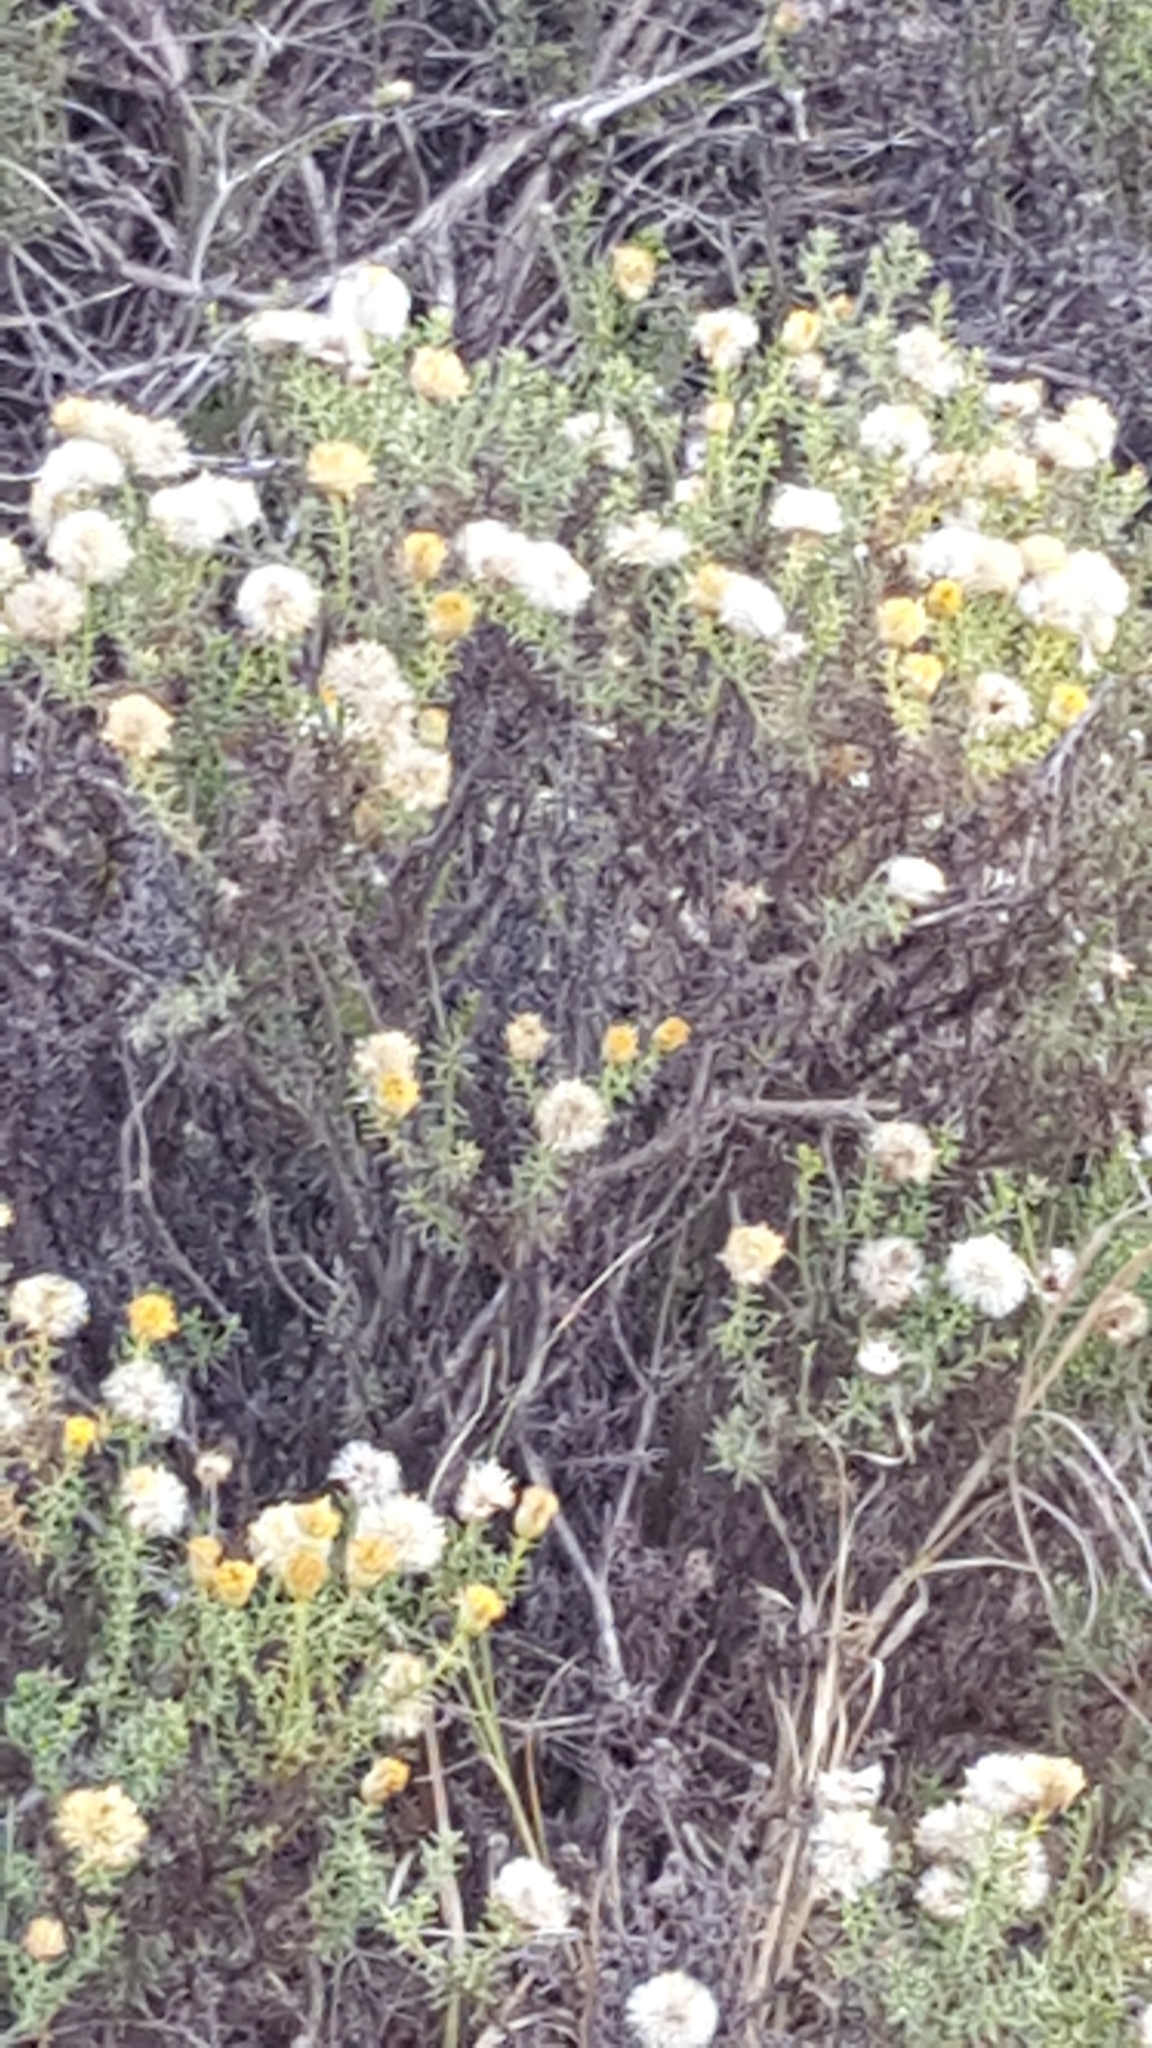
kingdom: Plantae
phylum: Tracheophyta
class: Magnoliopsida
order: Asterales
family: Asteraceae
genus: Chrysocoma
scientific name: Chrysocoma ciliata
